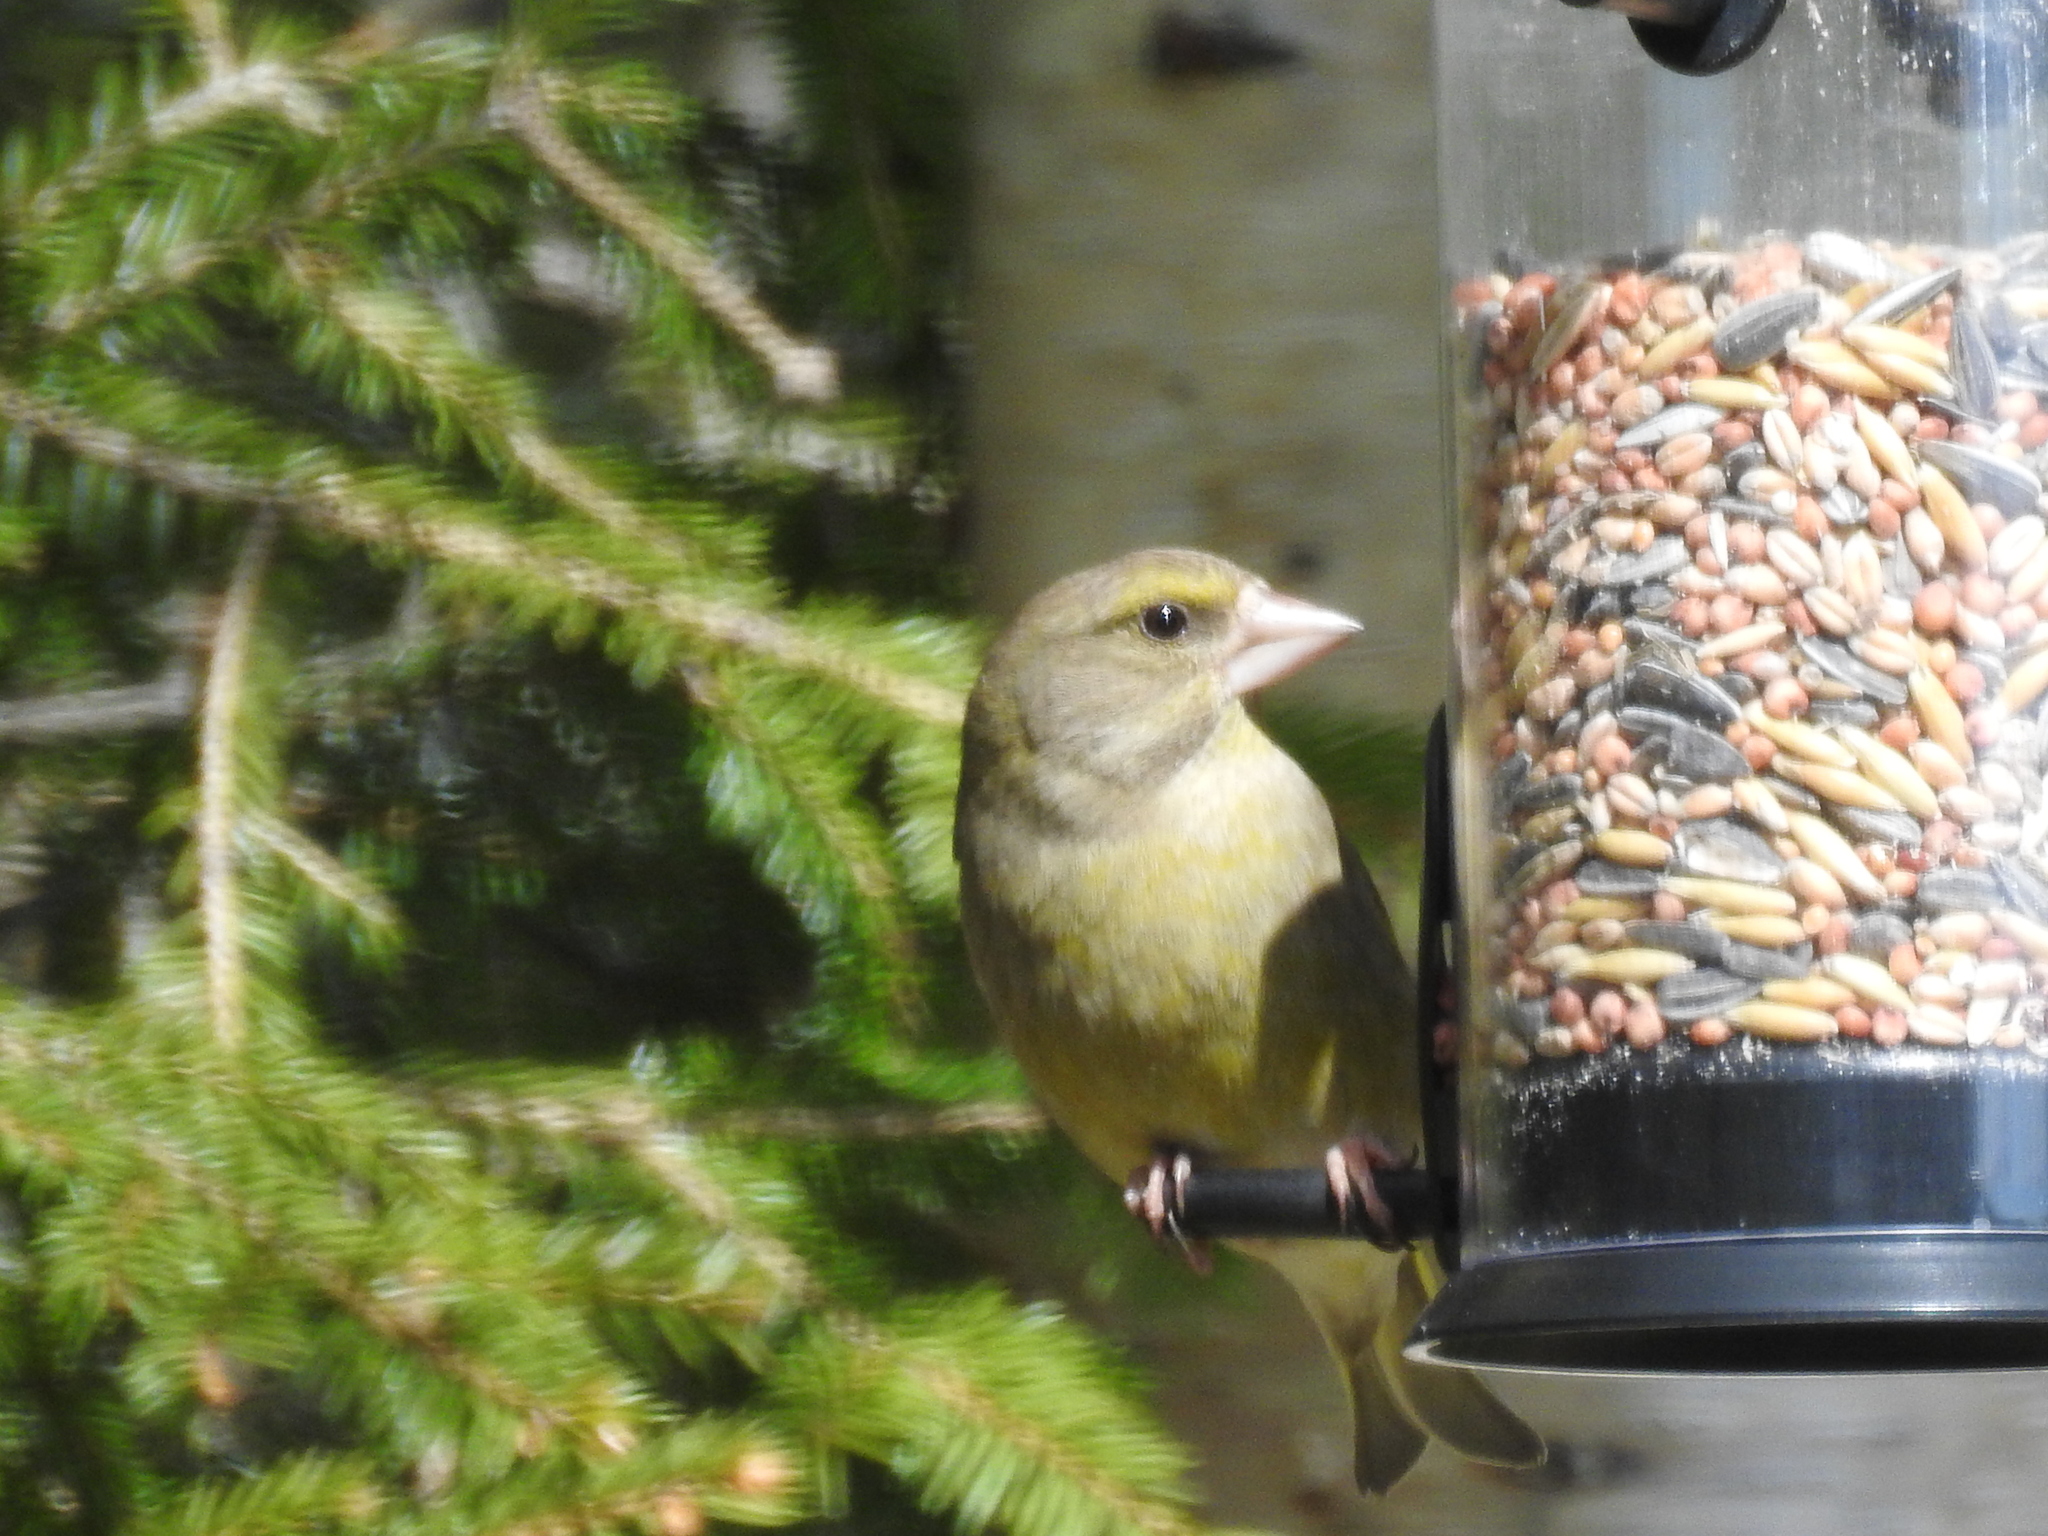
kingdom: Plantae
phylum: Tracheophyta
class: Liliopsida
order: Poales
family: Poaceae
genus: Chloris
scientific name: Chloris chloris
